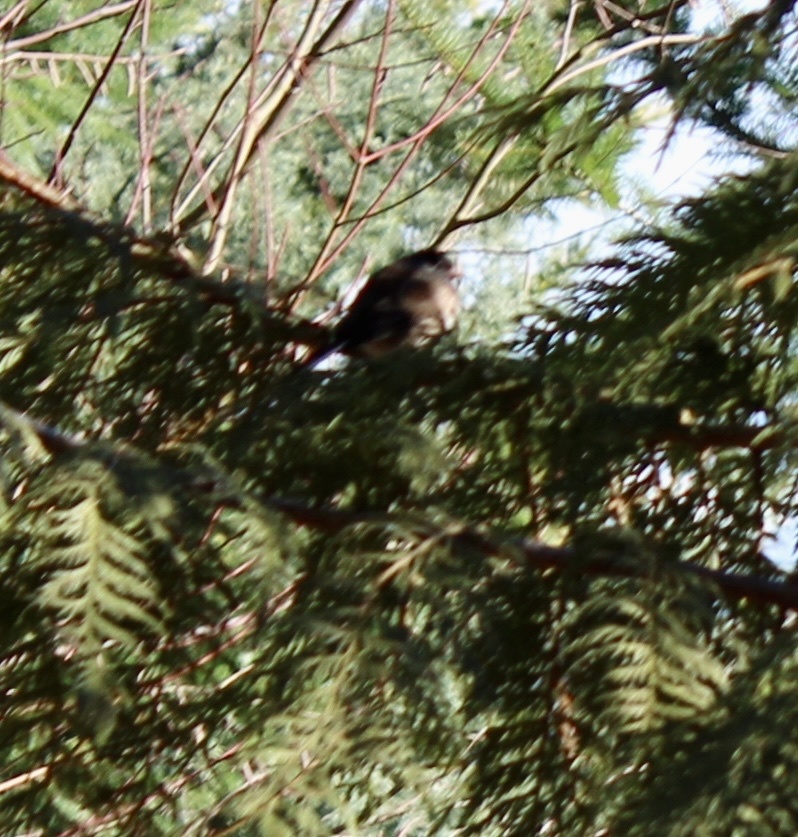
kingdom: Animalia
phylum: Chordata
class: Aves
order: Passeriformes
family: Passerellidae
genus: Junco
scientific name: Junco hyemalis
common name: Dark-eyed junco
